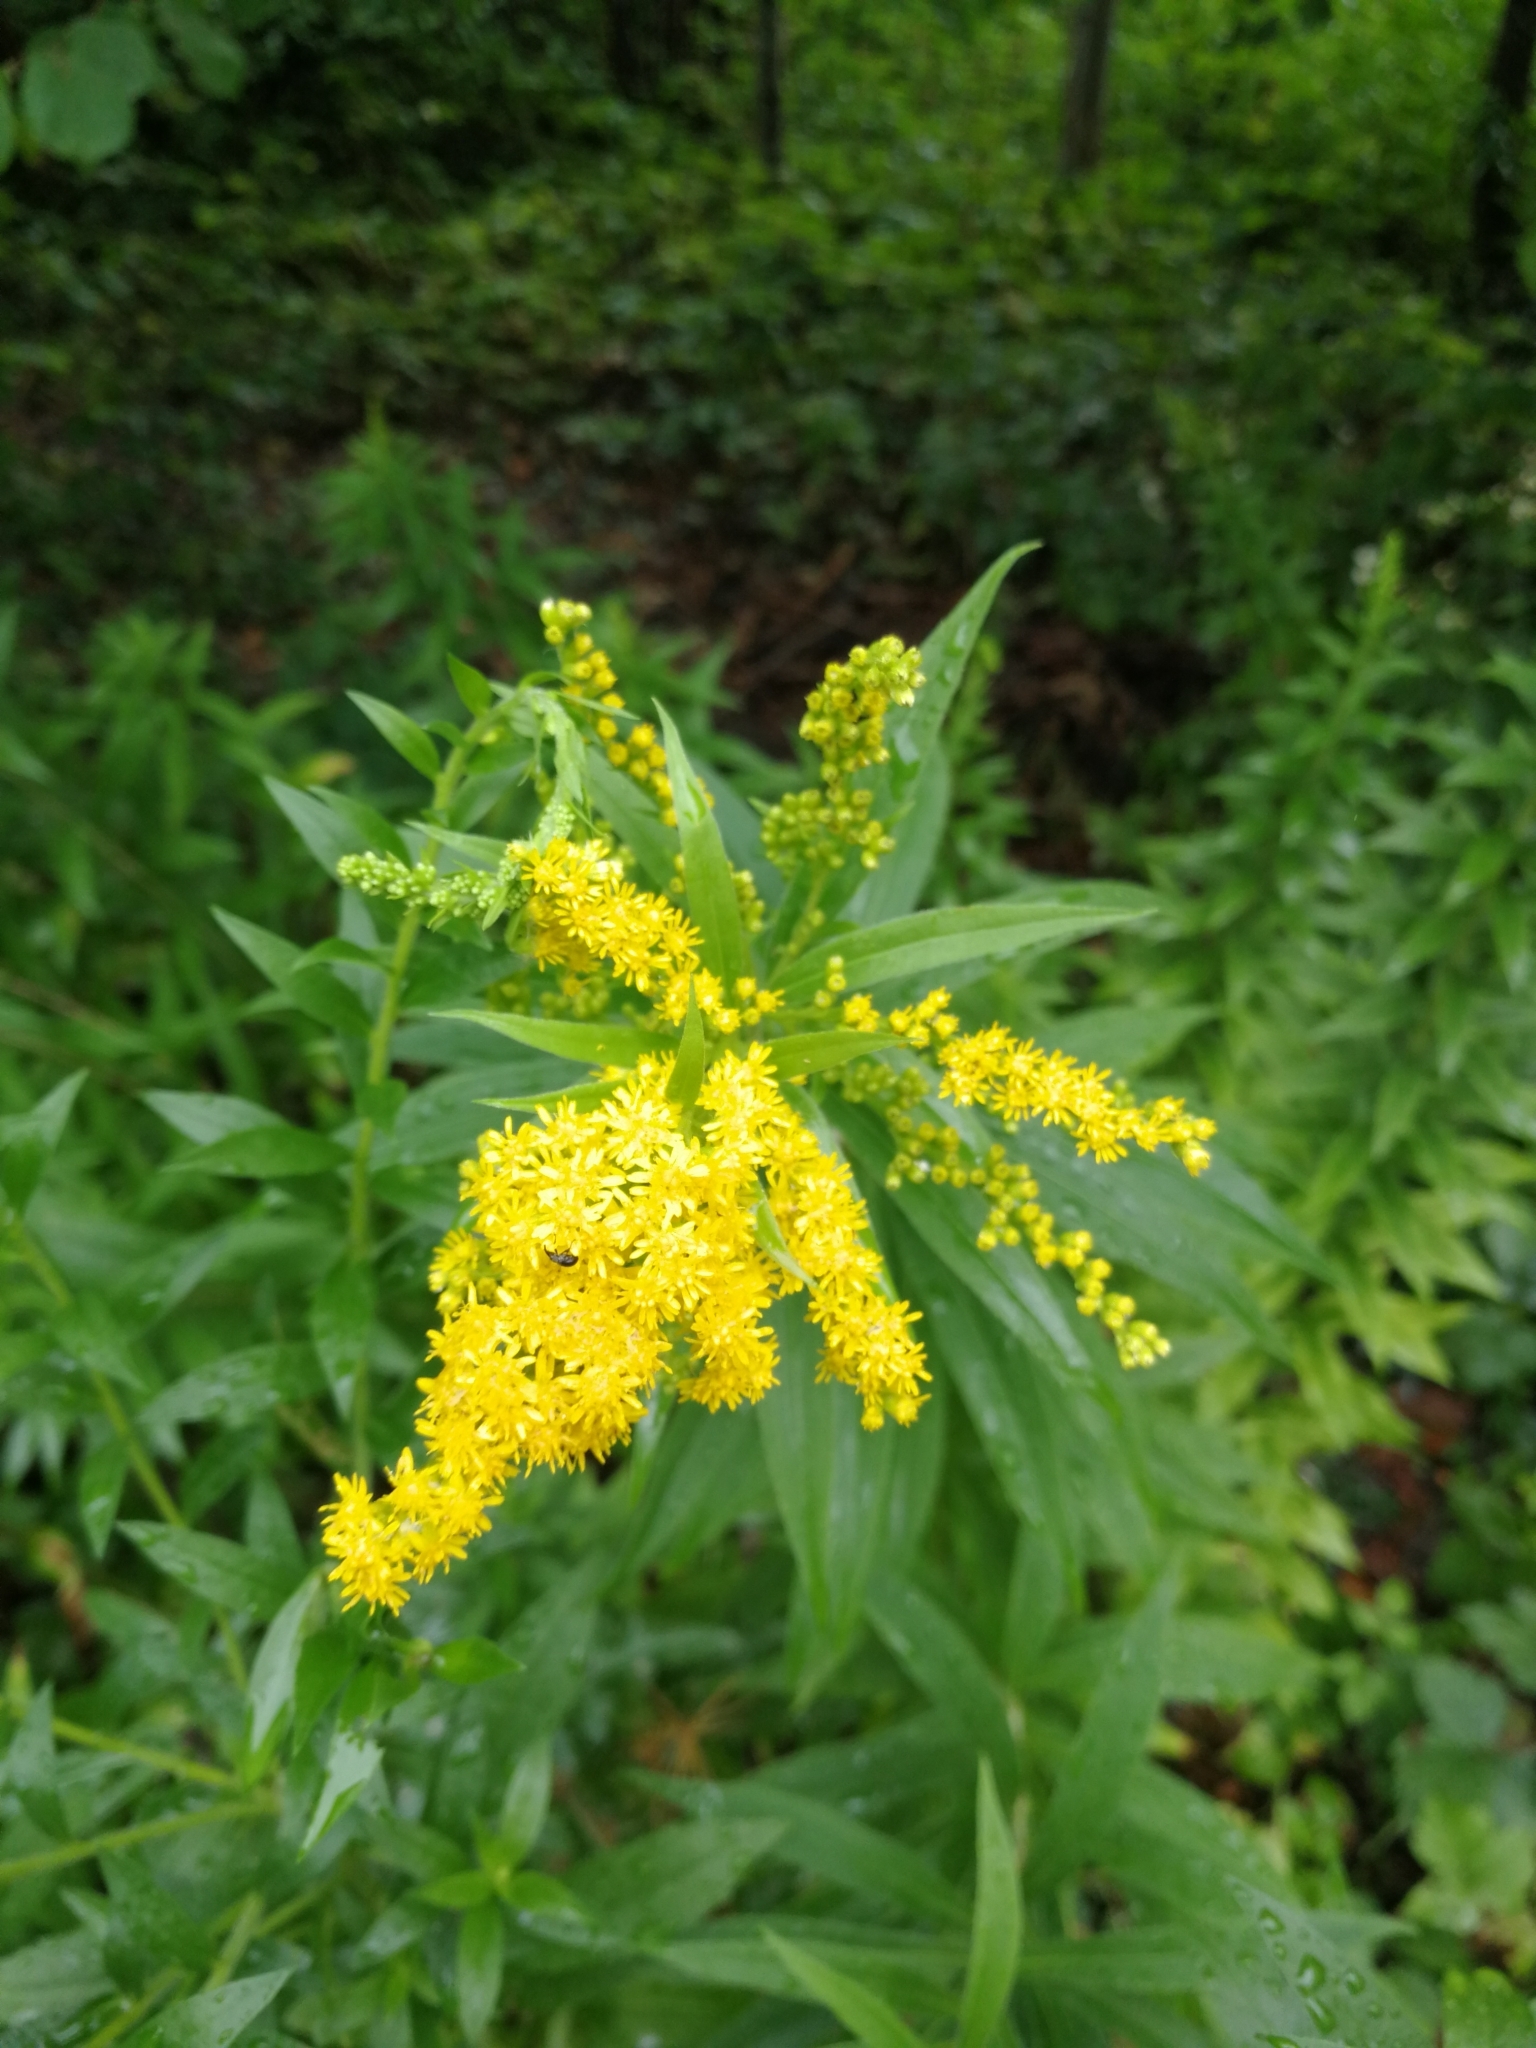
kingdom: Plantae
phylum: Tracheophyta
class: Magnoliopsida
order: Asterales
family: Asteraceae
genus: Solidago
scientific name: Solidago gigantea
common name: Giant goldenrod
